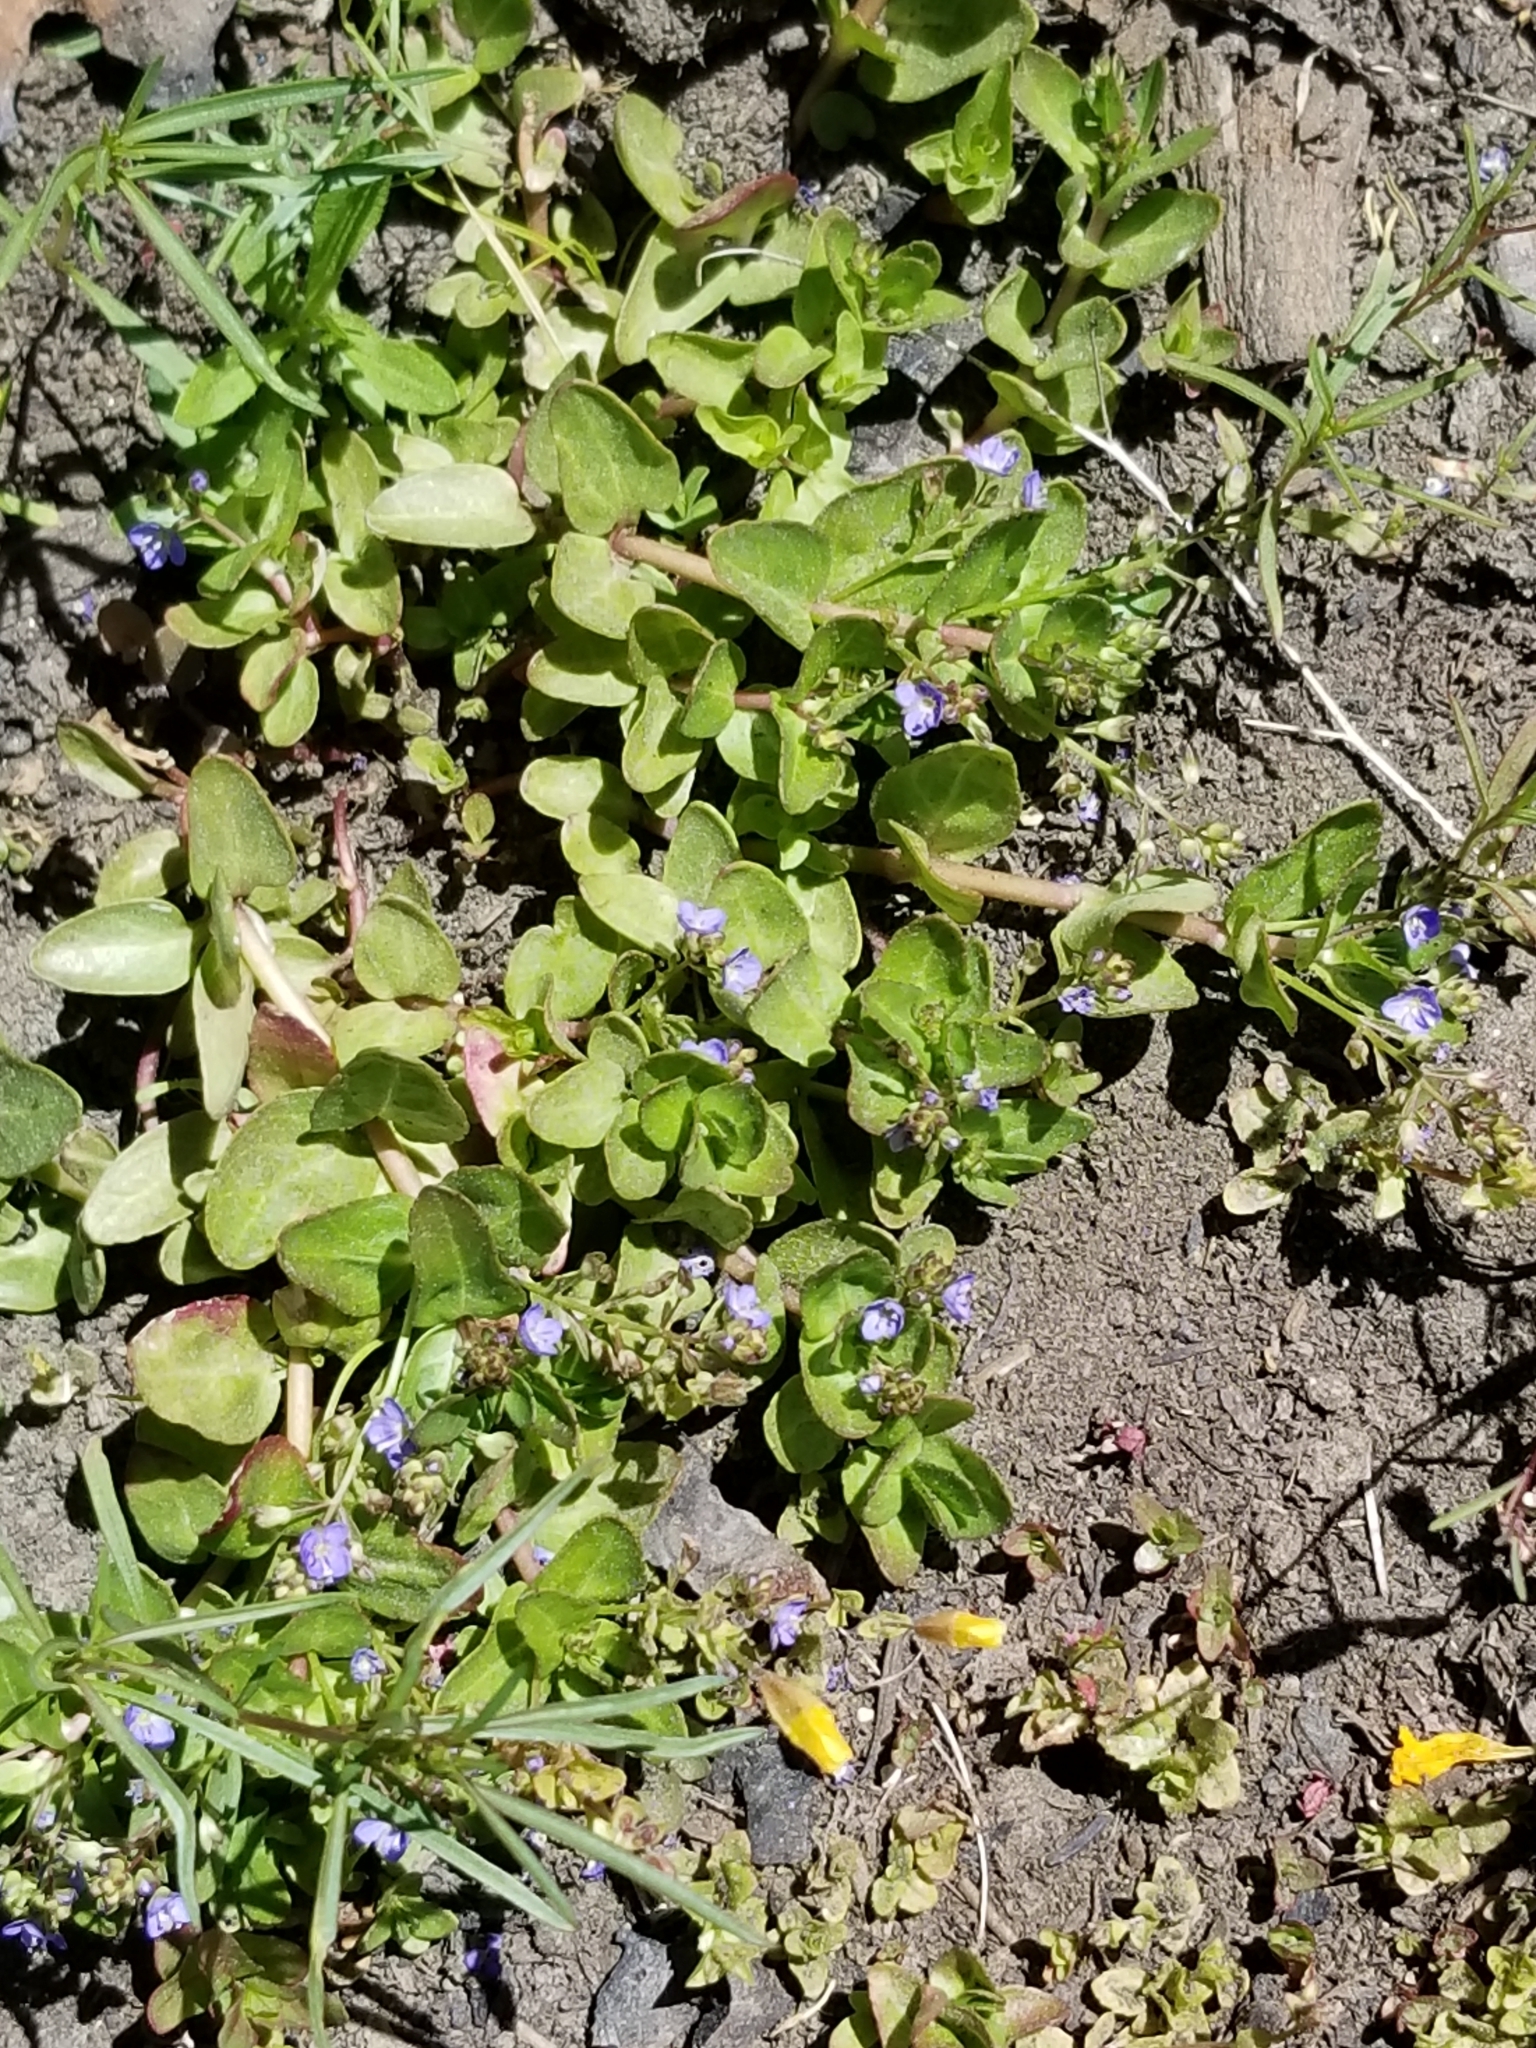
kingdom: Plantae
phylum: Tracheophyta
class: Magnoliopsida
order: Lamiales
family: Plantaginaceae
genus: Veronica
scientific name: Veronica americana
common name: American brooklime
